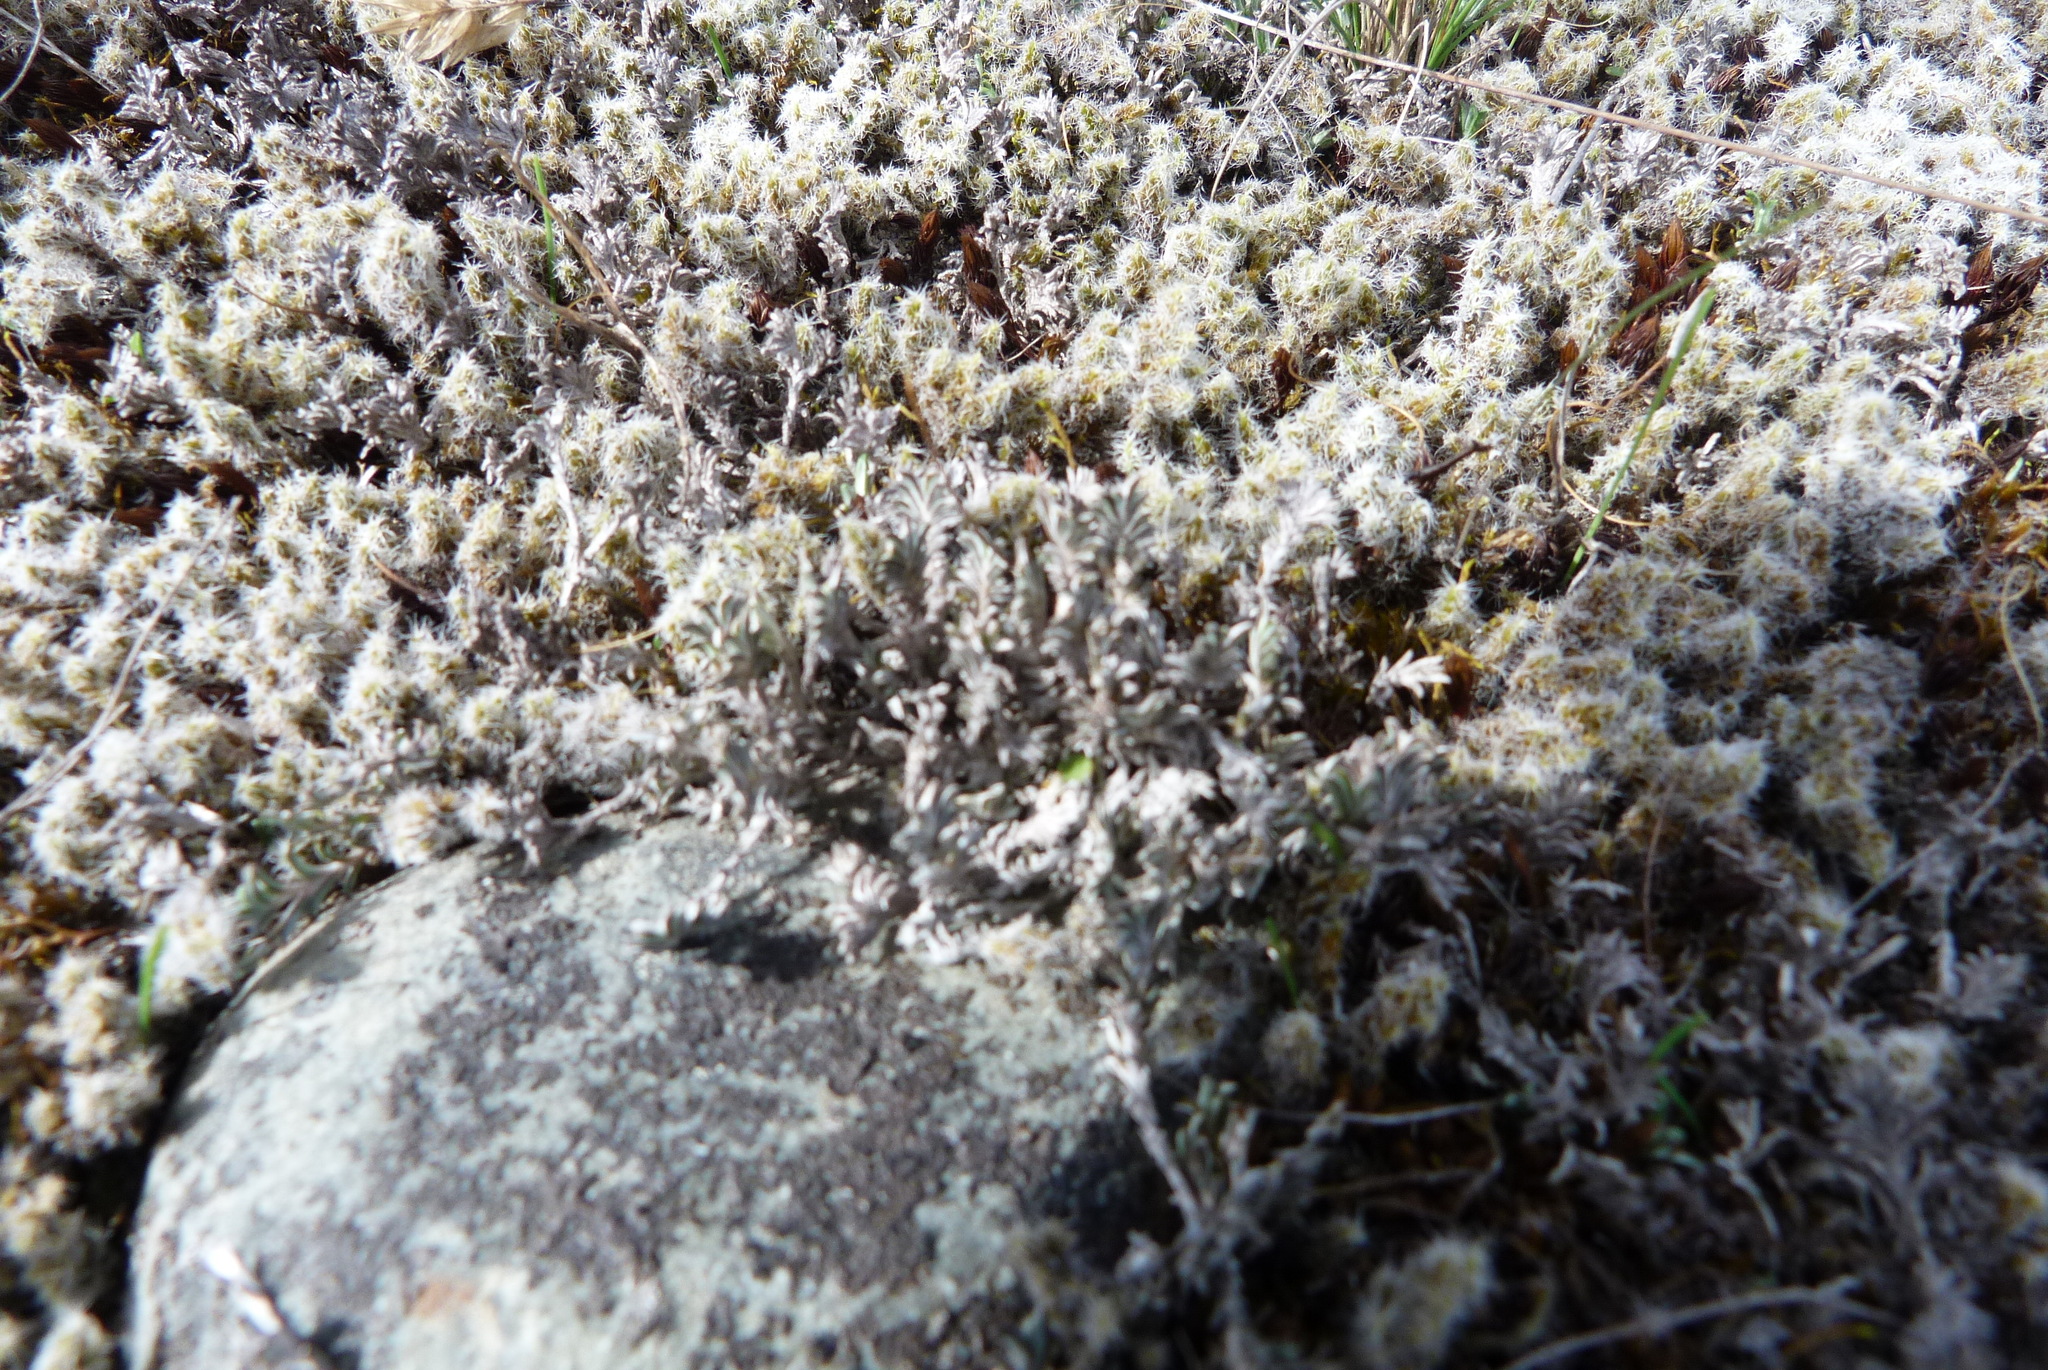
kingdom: Plantae
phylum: Tracheophyta
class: Magnoliopsida
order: Asterales
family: Asteraceae
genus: Raoulia
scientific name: Raoulia monroi
